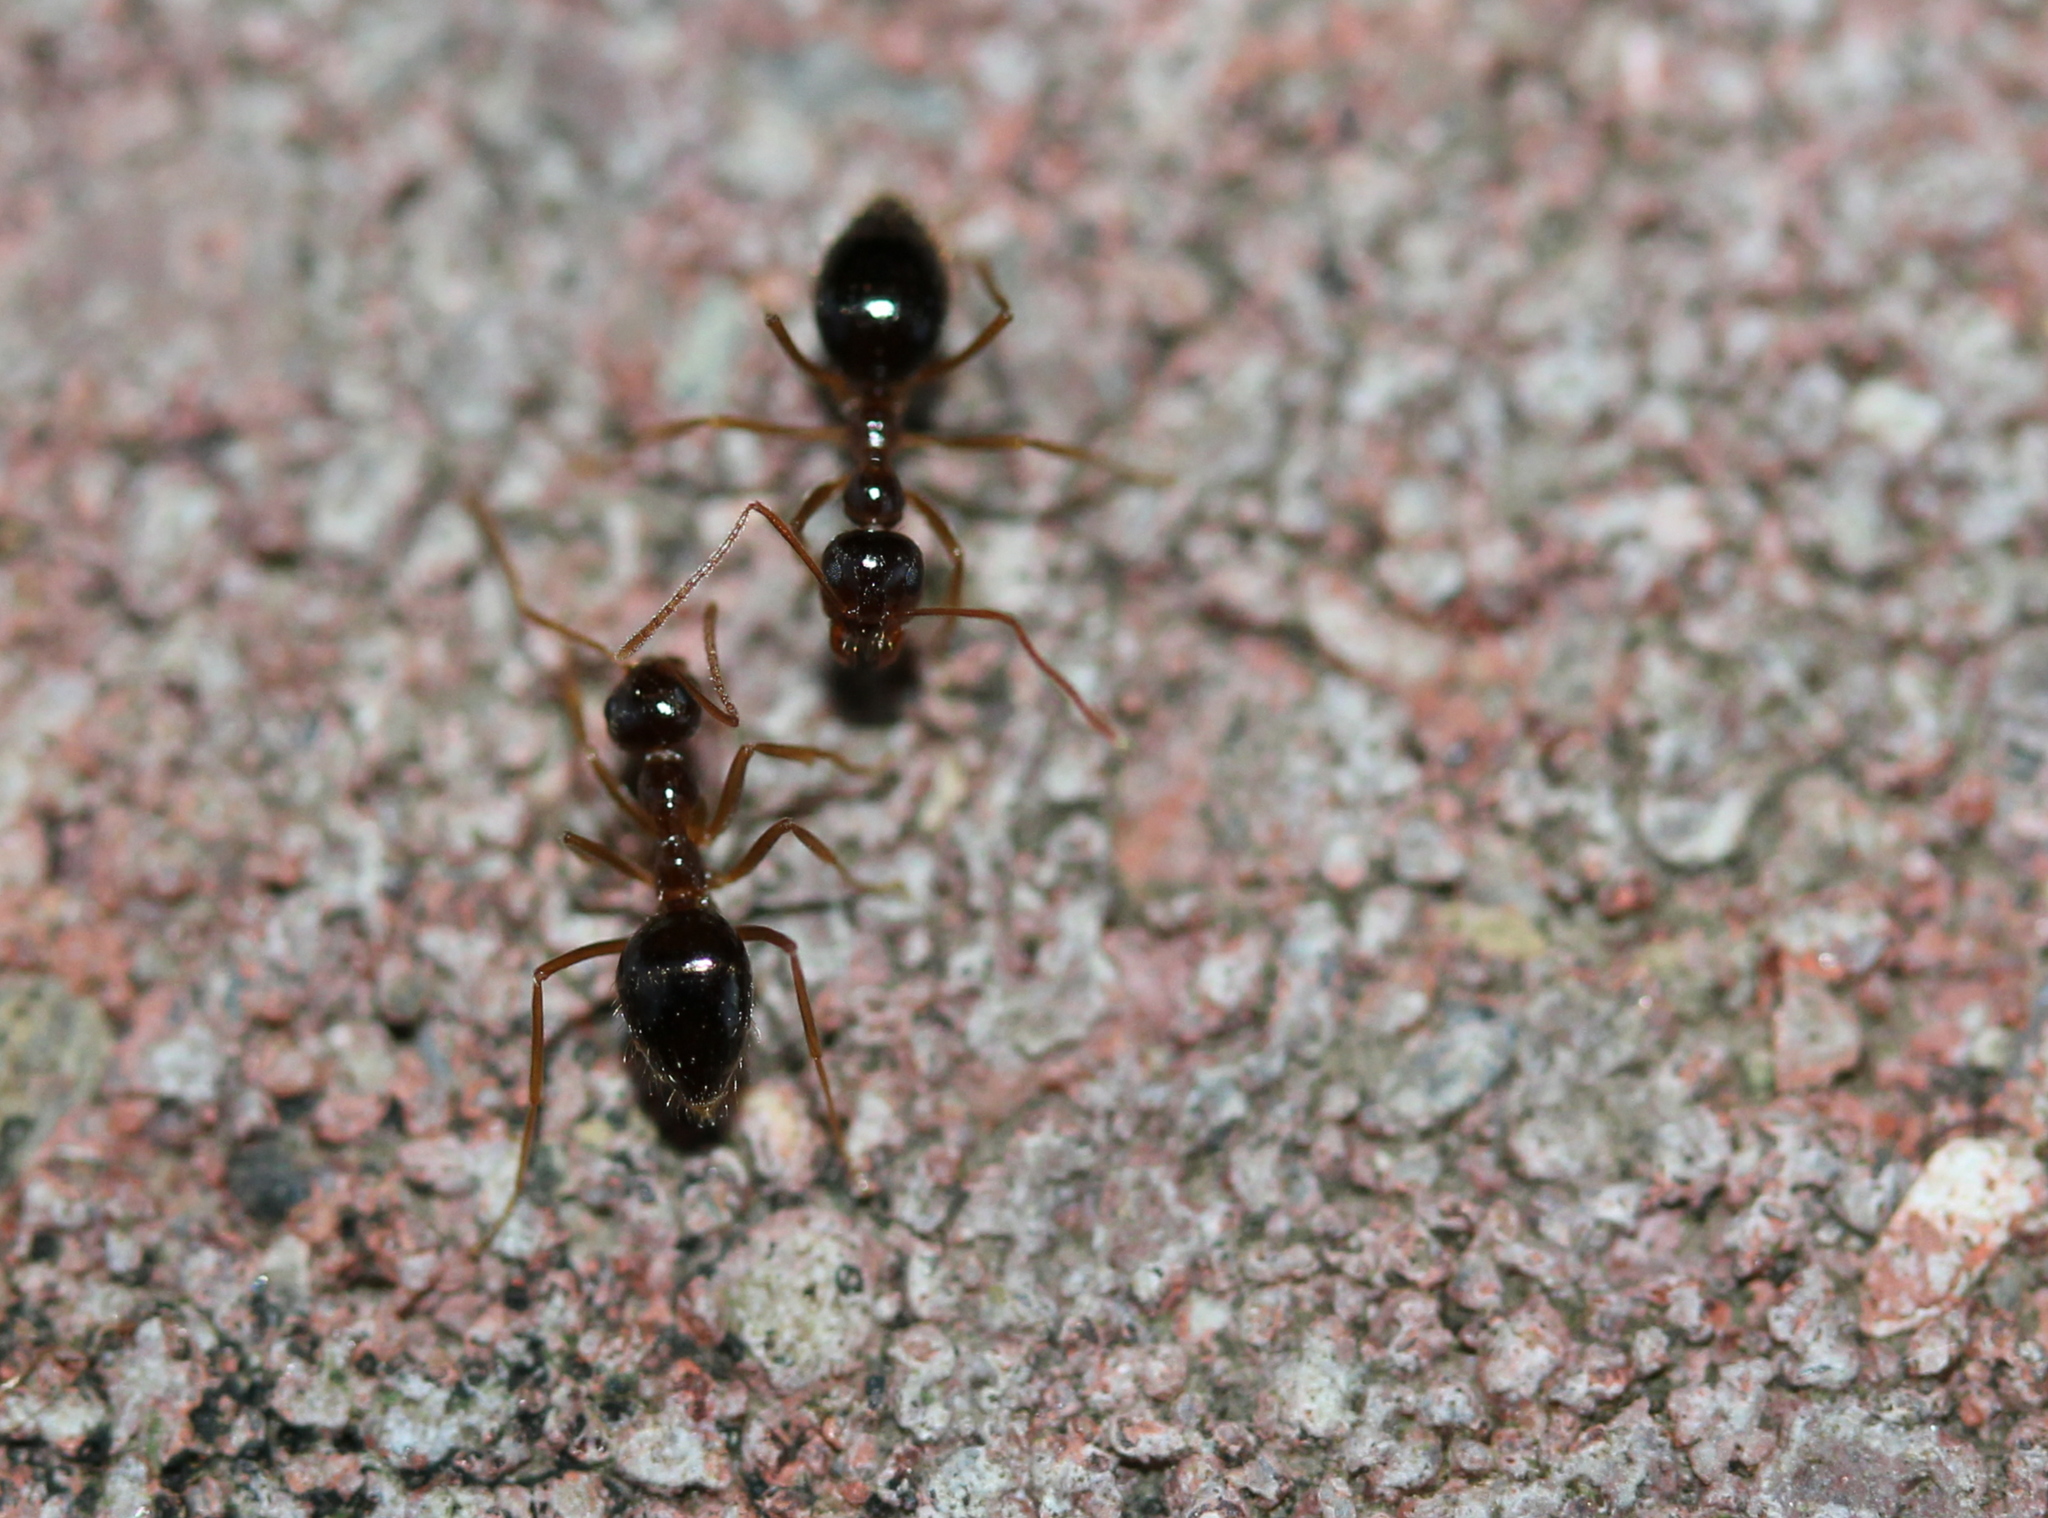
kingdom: Animalia
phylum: Arthropoda
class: Insecta
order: Hymenoptera
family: Formicidae
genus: Prenolepis
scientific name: Prenolepis imparis
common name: Small honey ant
